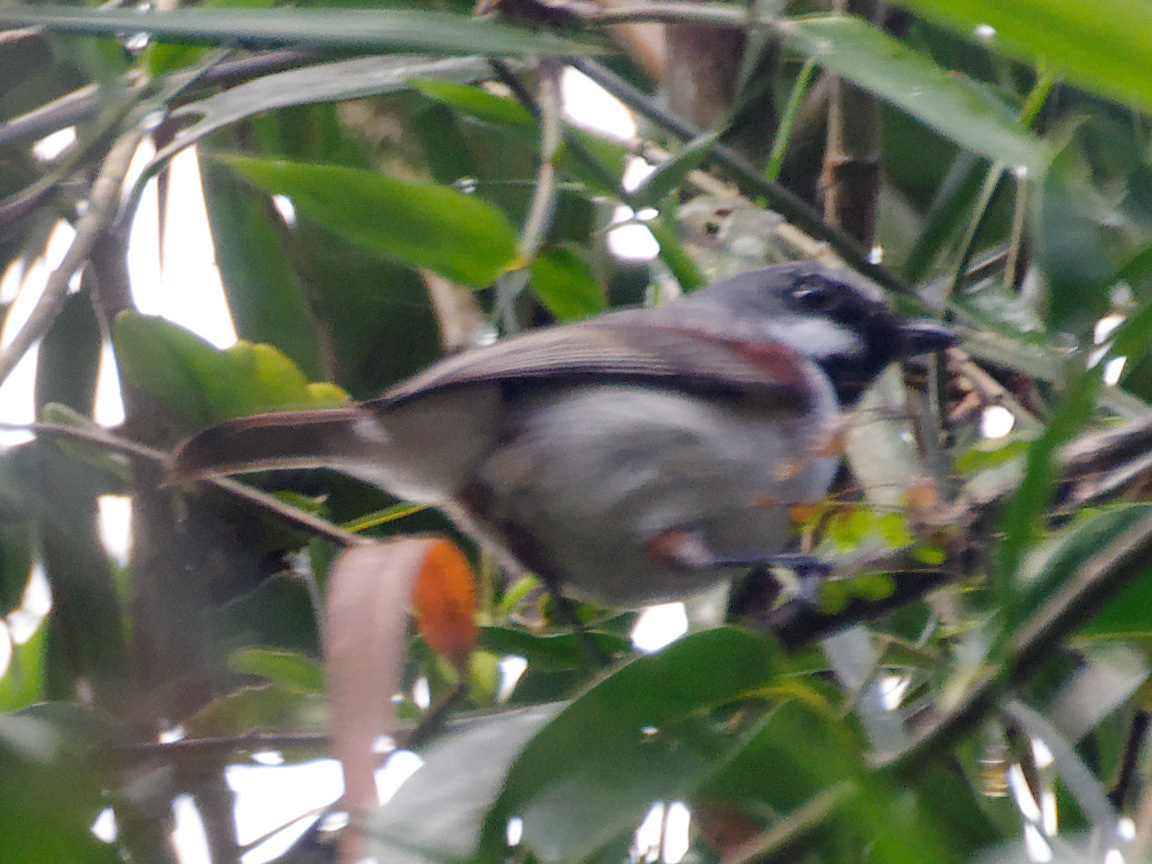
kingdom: Animalia
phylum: Chordata
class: Aves
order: Passeriformes
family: Vangidae
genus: Calicalicus
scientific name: Calicalicus madagascariensis
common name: Red-tailed vanga
